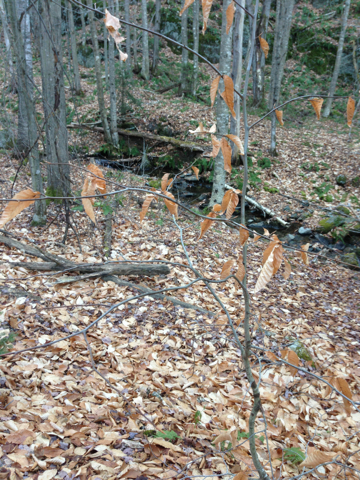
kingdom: Plantae
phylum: Tracheophyta
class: Magnoliopsida
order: Fagales
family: Fagaceae
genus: Fagus
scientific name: Fagus grandifolia
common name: American beech
